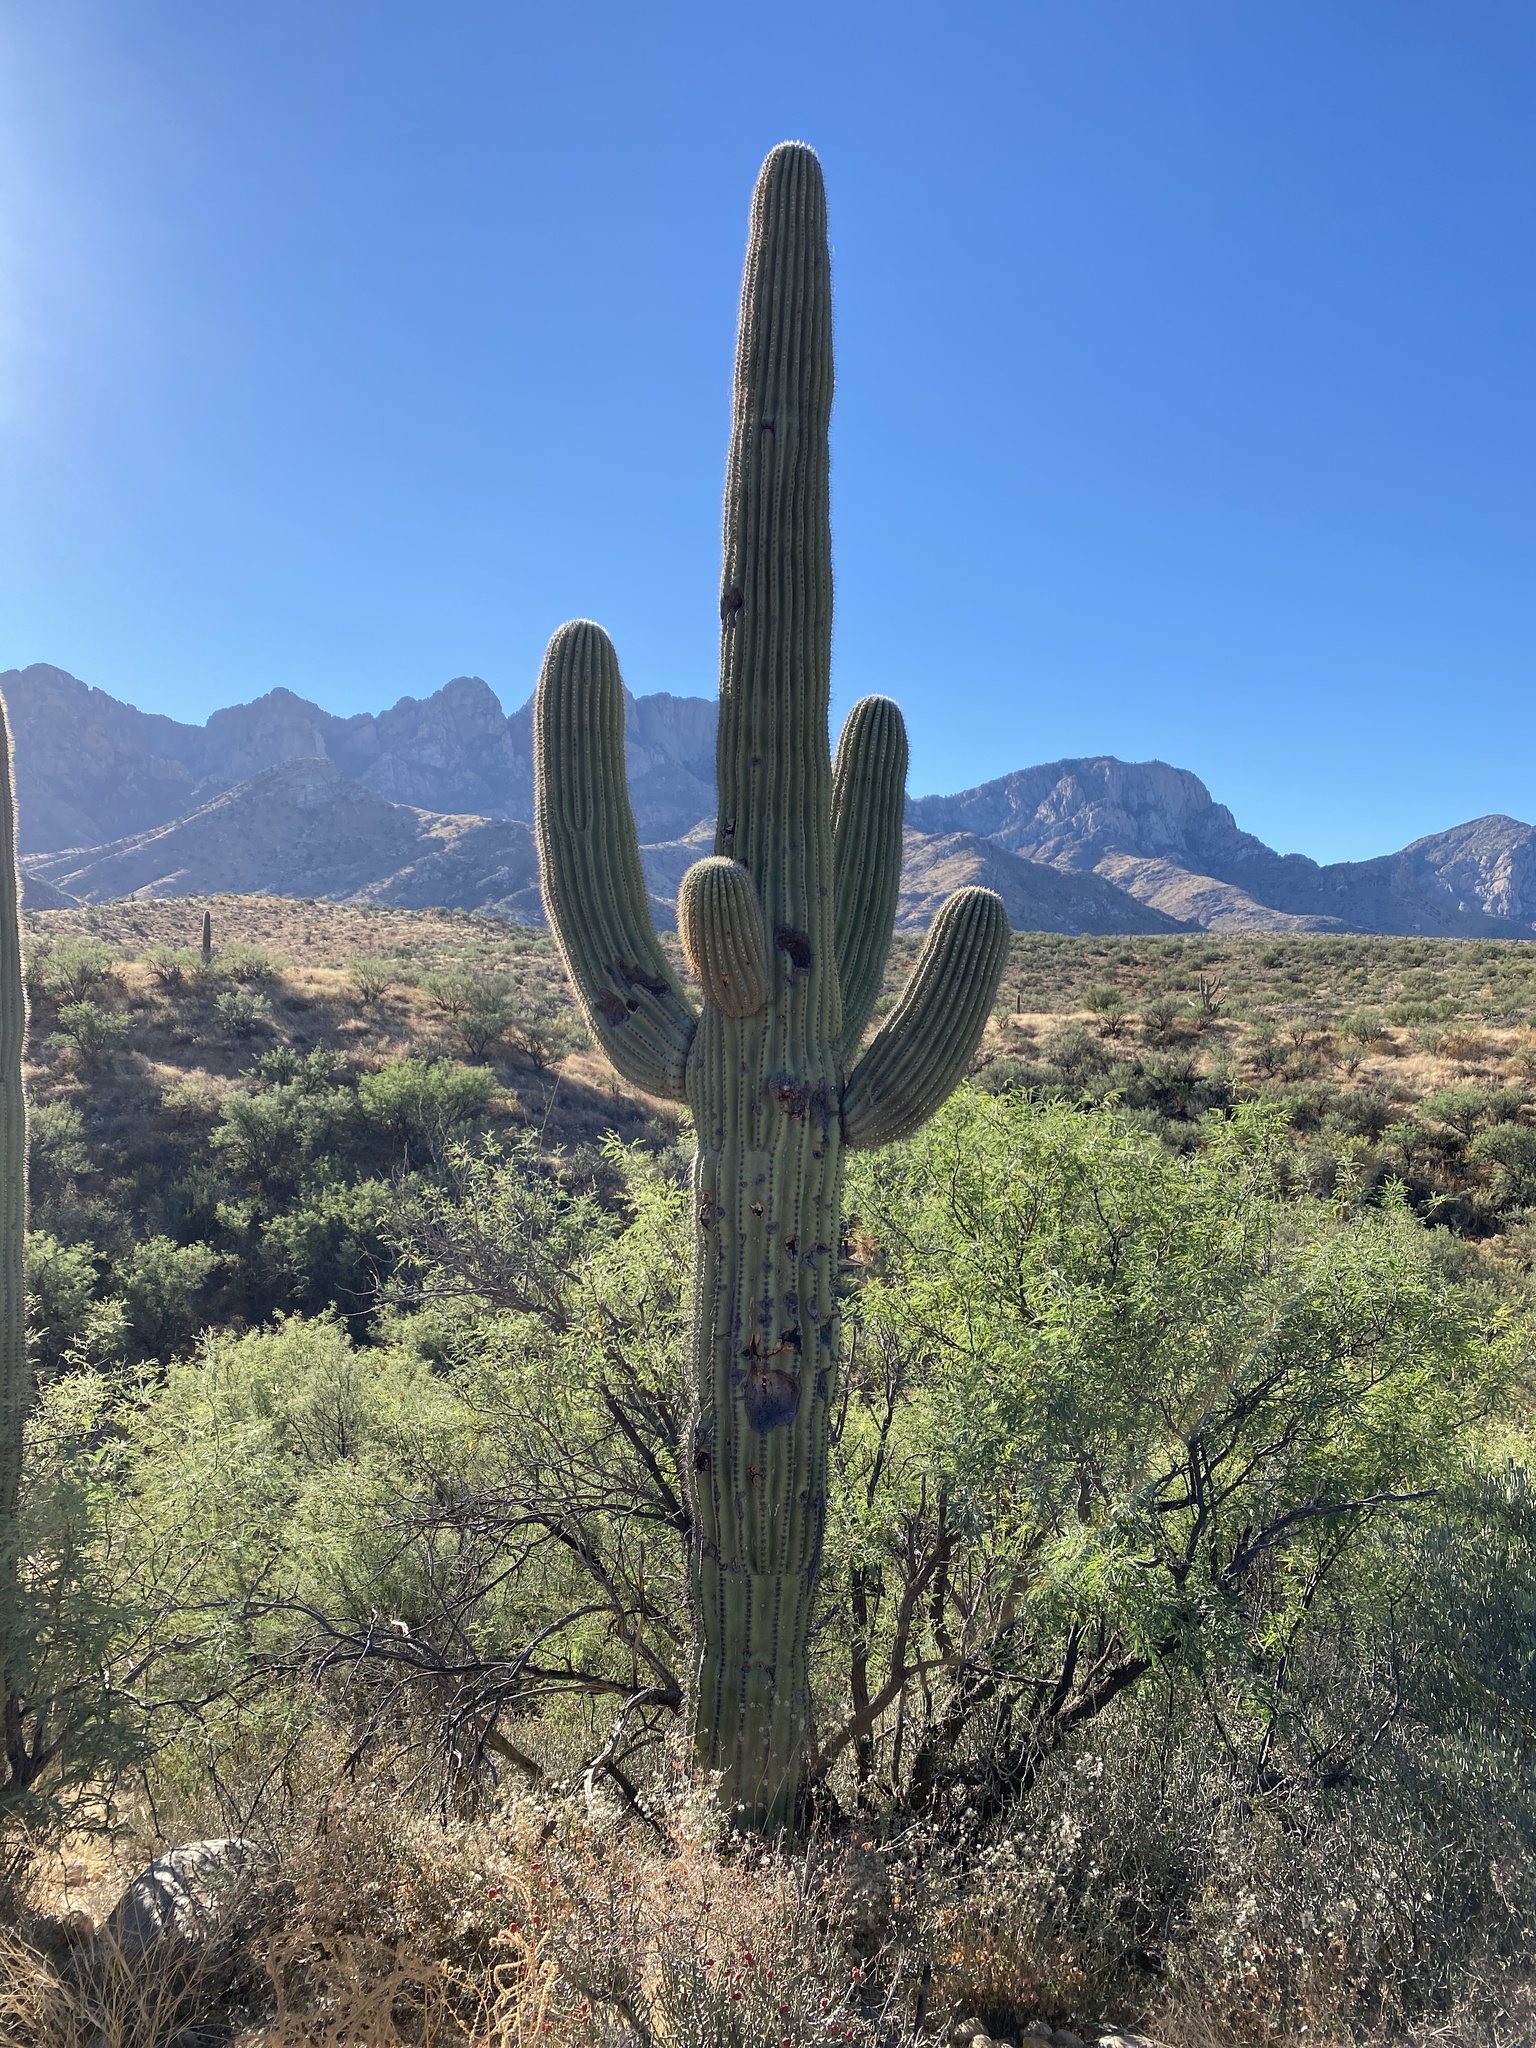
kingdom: Plantae
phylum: Tracheophyta
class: Magnoliopsida
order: Caryophyllales
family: Cactaceae
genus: Carnegiea
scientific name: Carnegiea gigantea
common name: Saguaro
